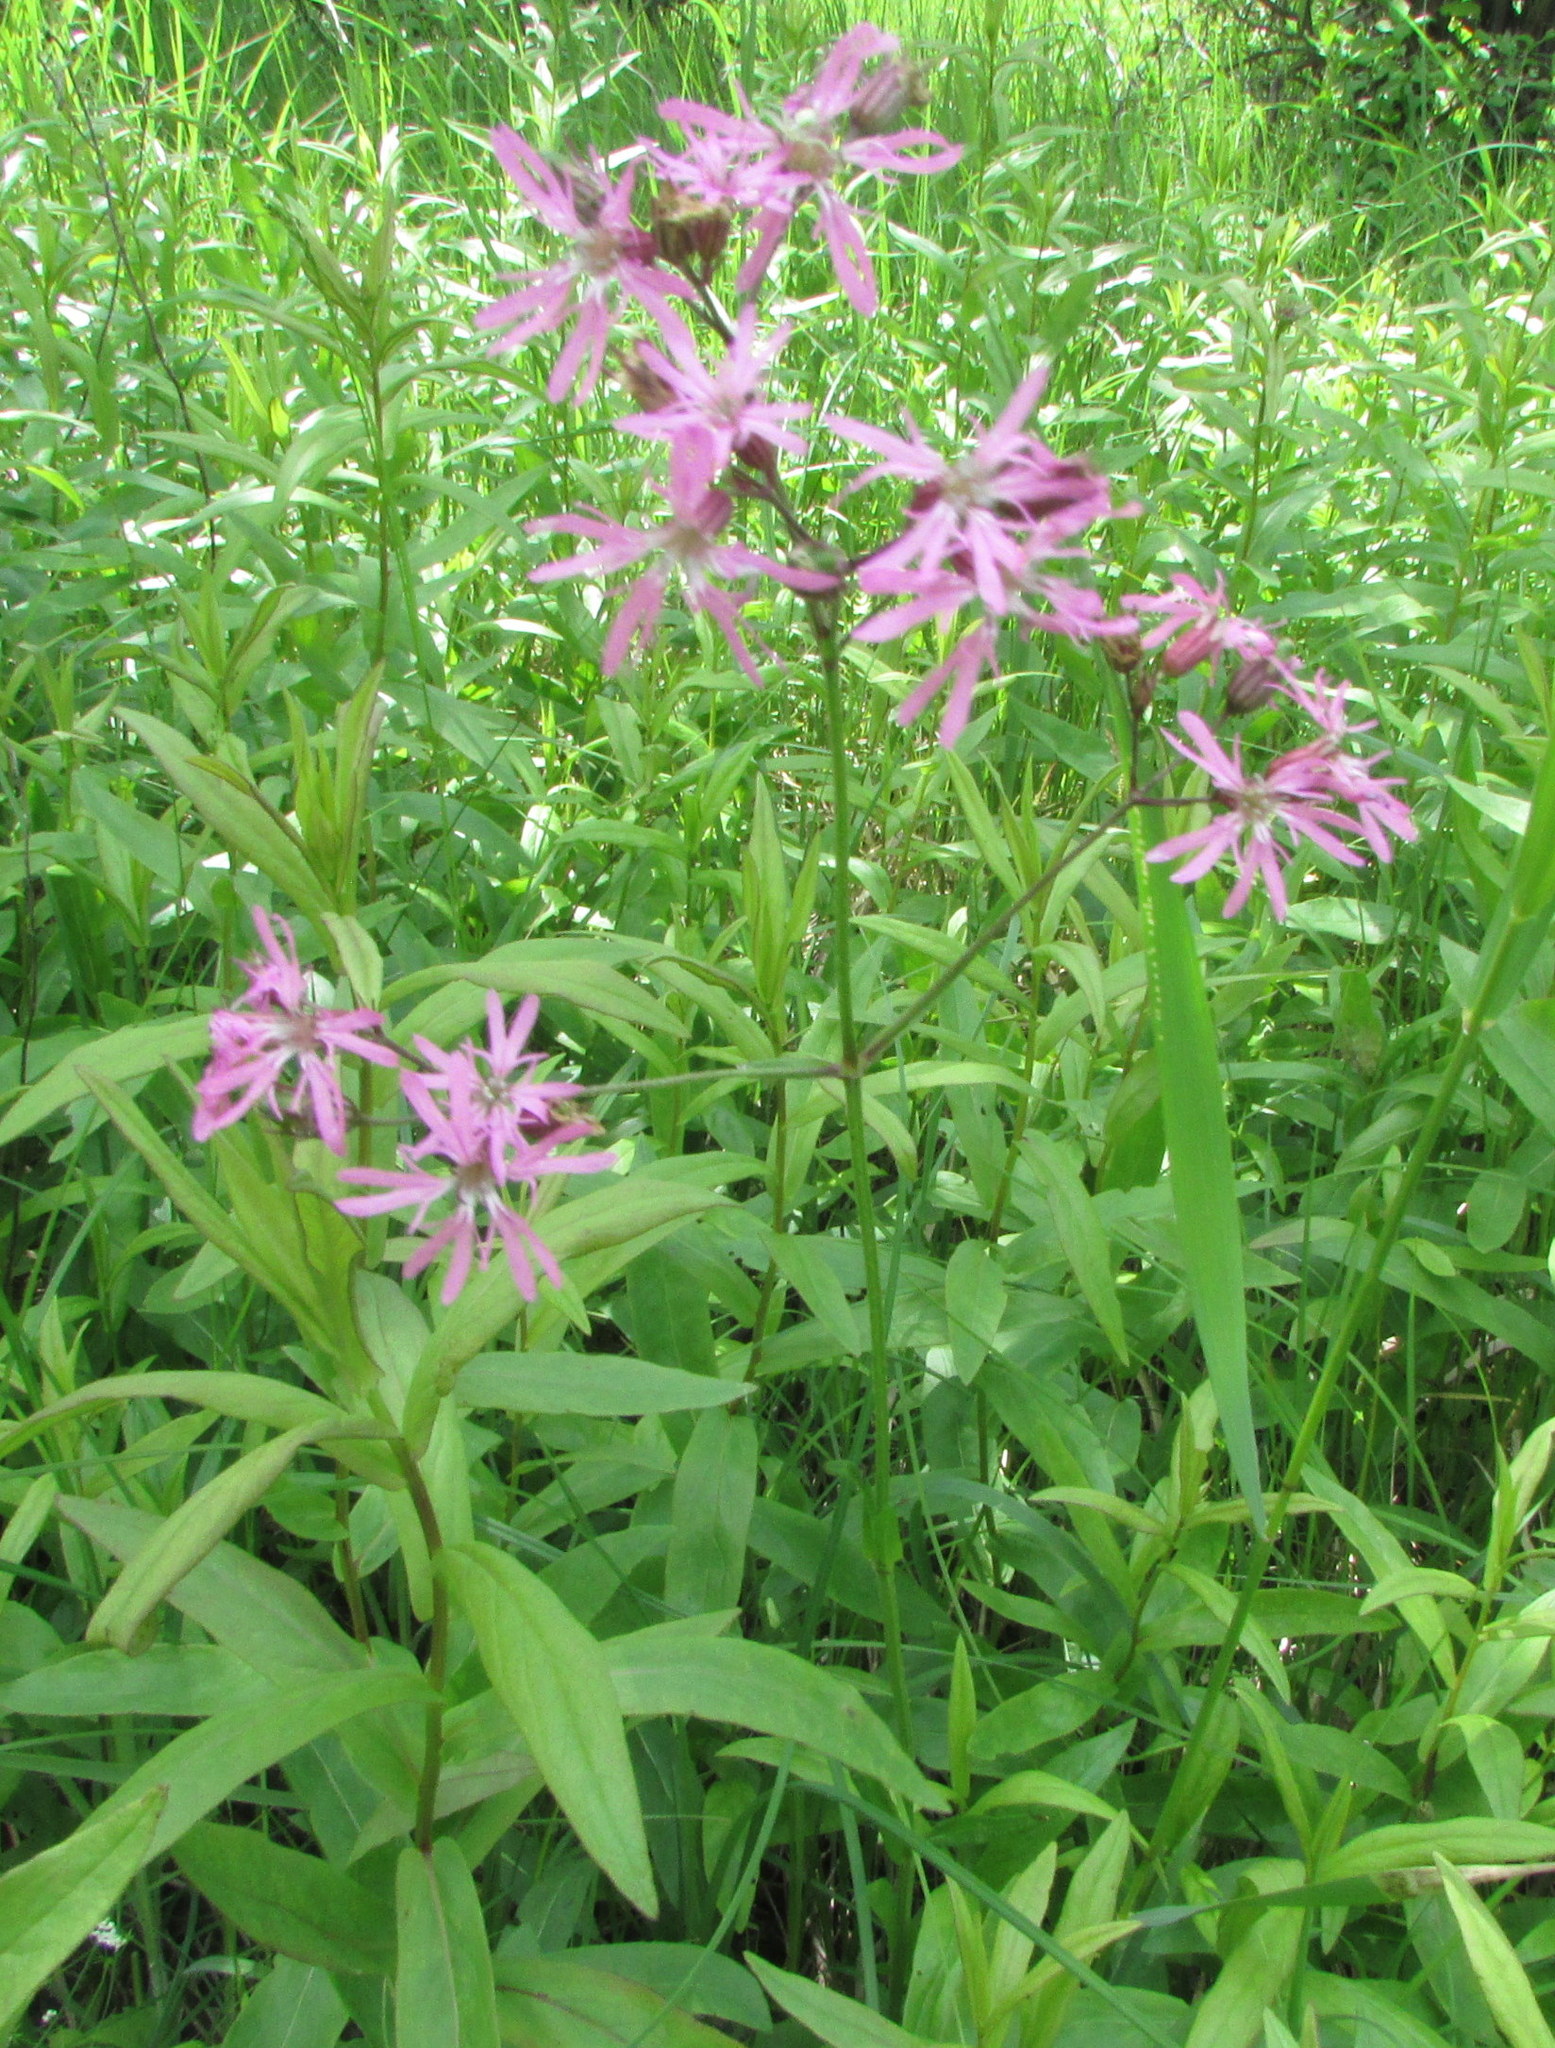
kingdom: Plantae
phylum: Tracheophyta
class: Magnoliopsida
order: Caryophyllales
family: Caryophyllaceae
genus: Silene
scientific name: Silene flos-cuculi
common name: Ragged-robin
